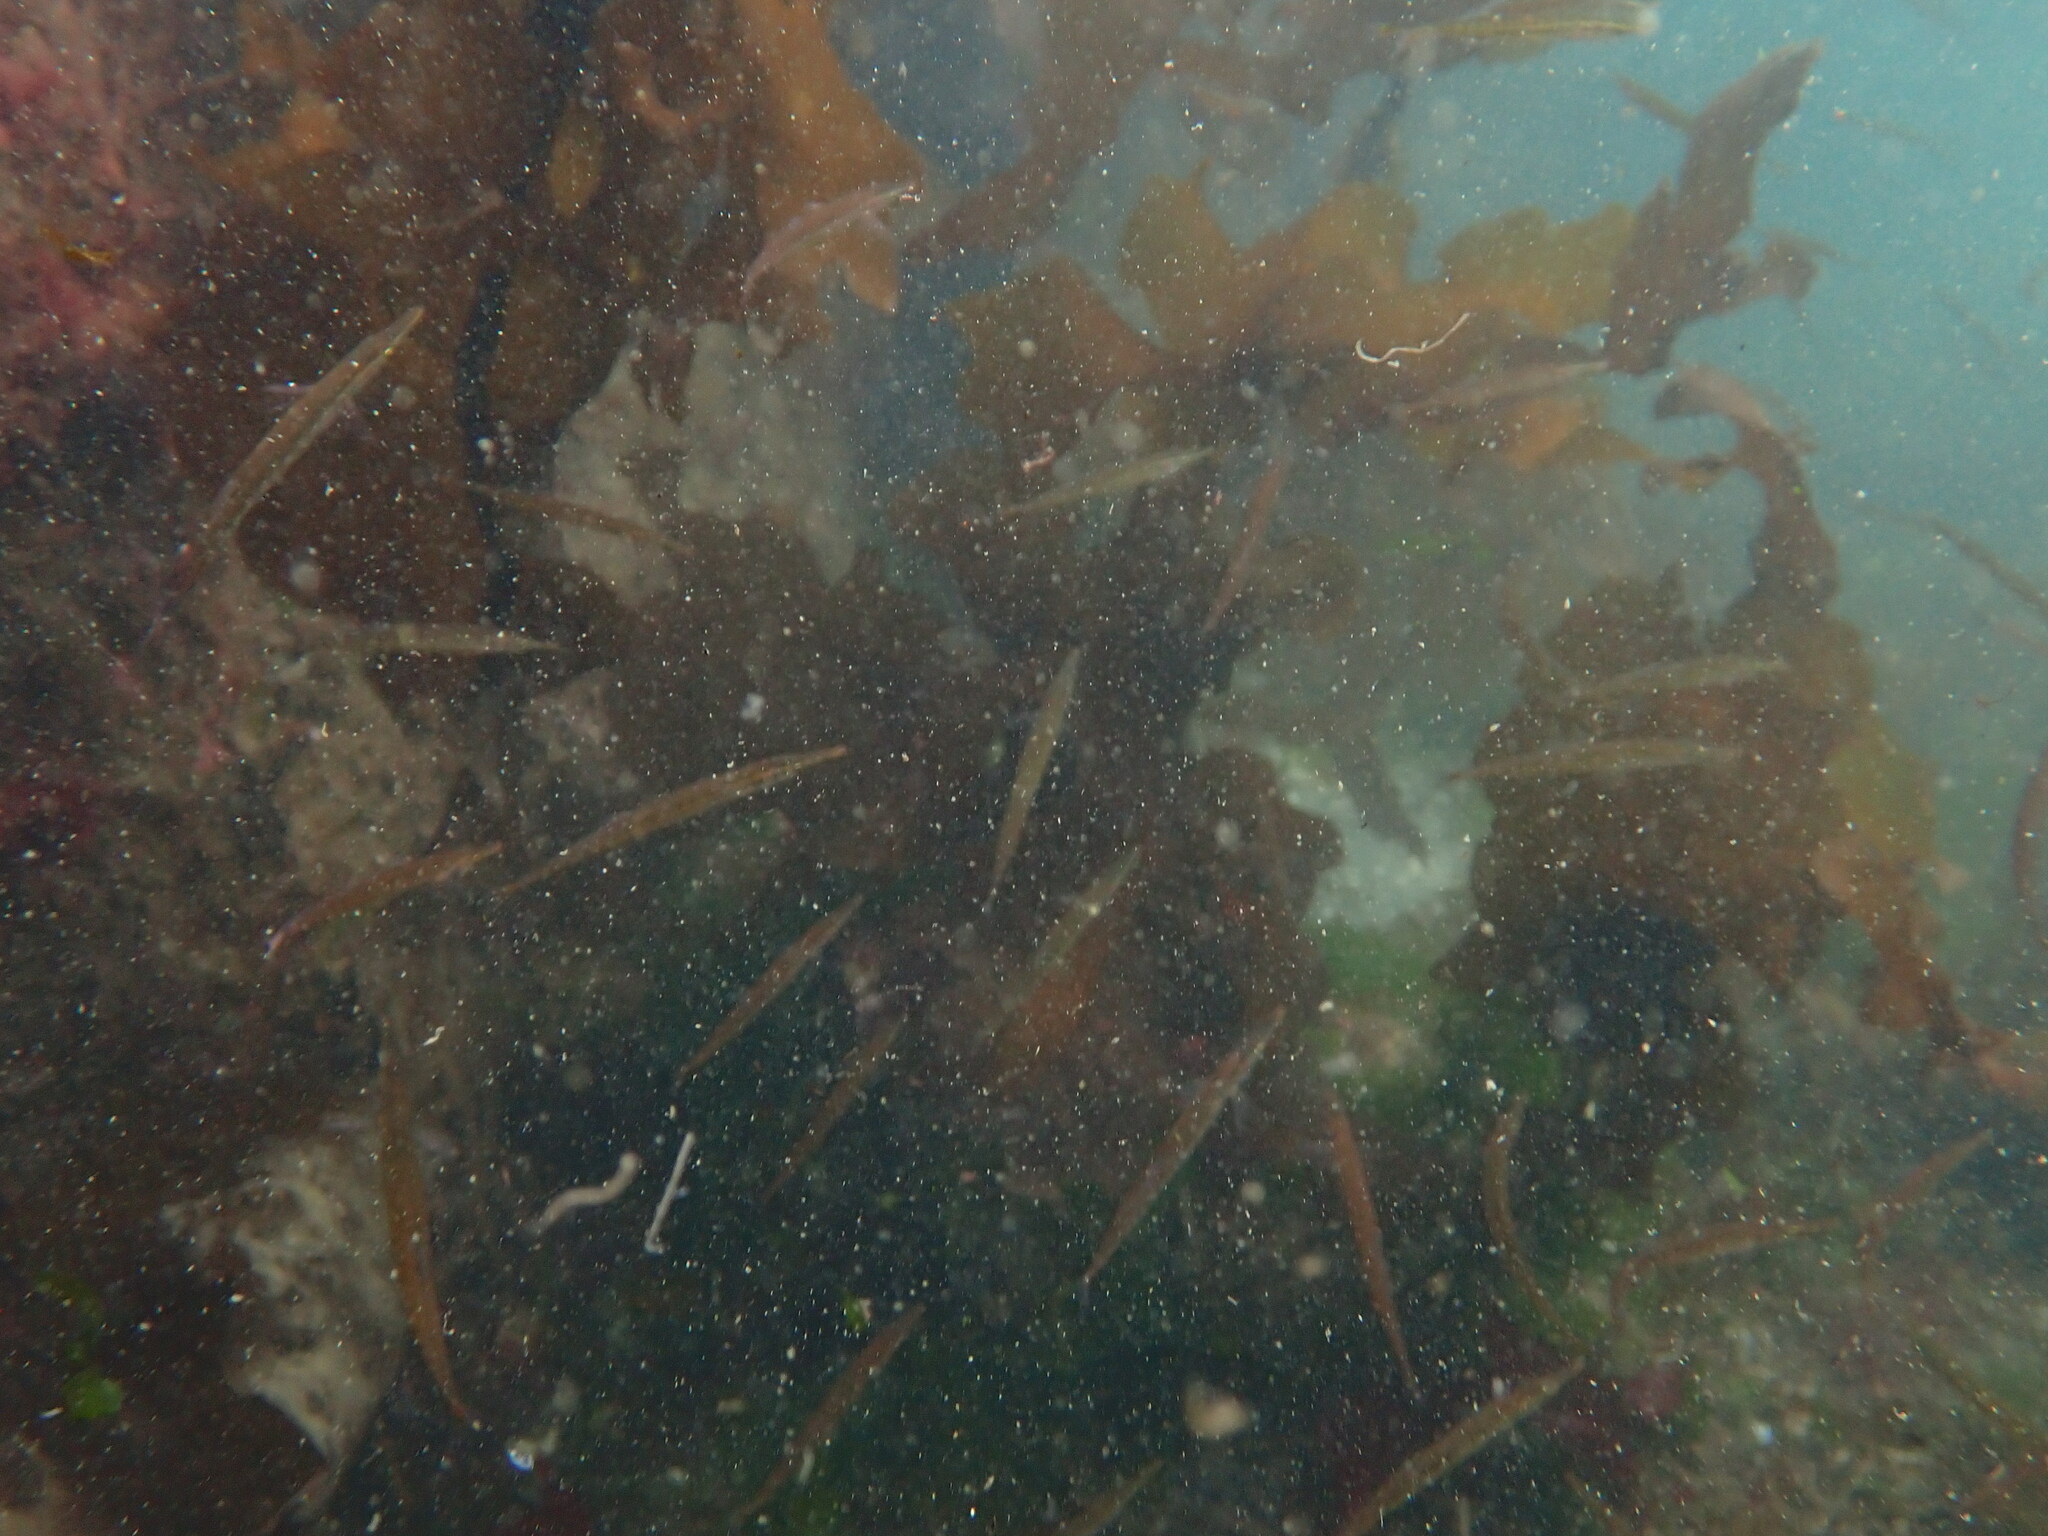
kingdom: Animalia
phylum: Chordata
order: Gasterosteiformes
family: Aulorhynchidae
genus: Aulorhynchus
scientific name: Aulorhynchus flavidus
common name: Tube-snout
